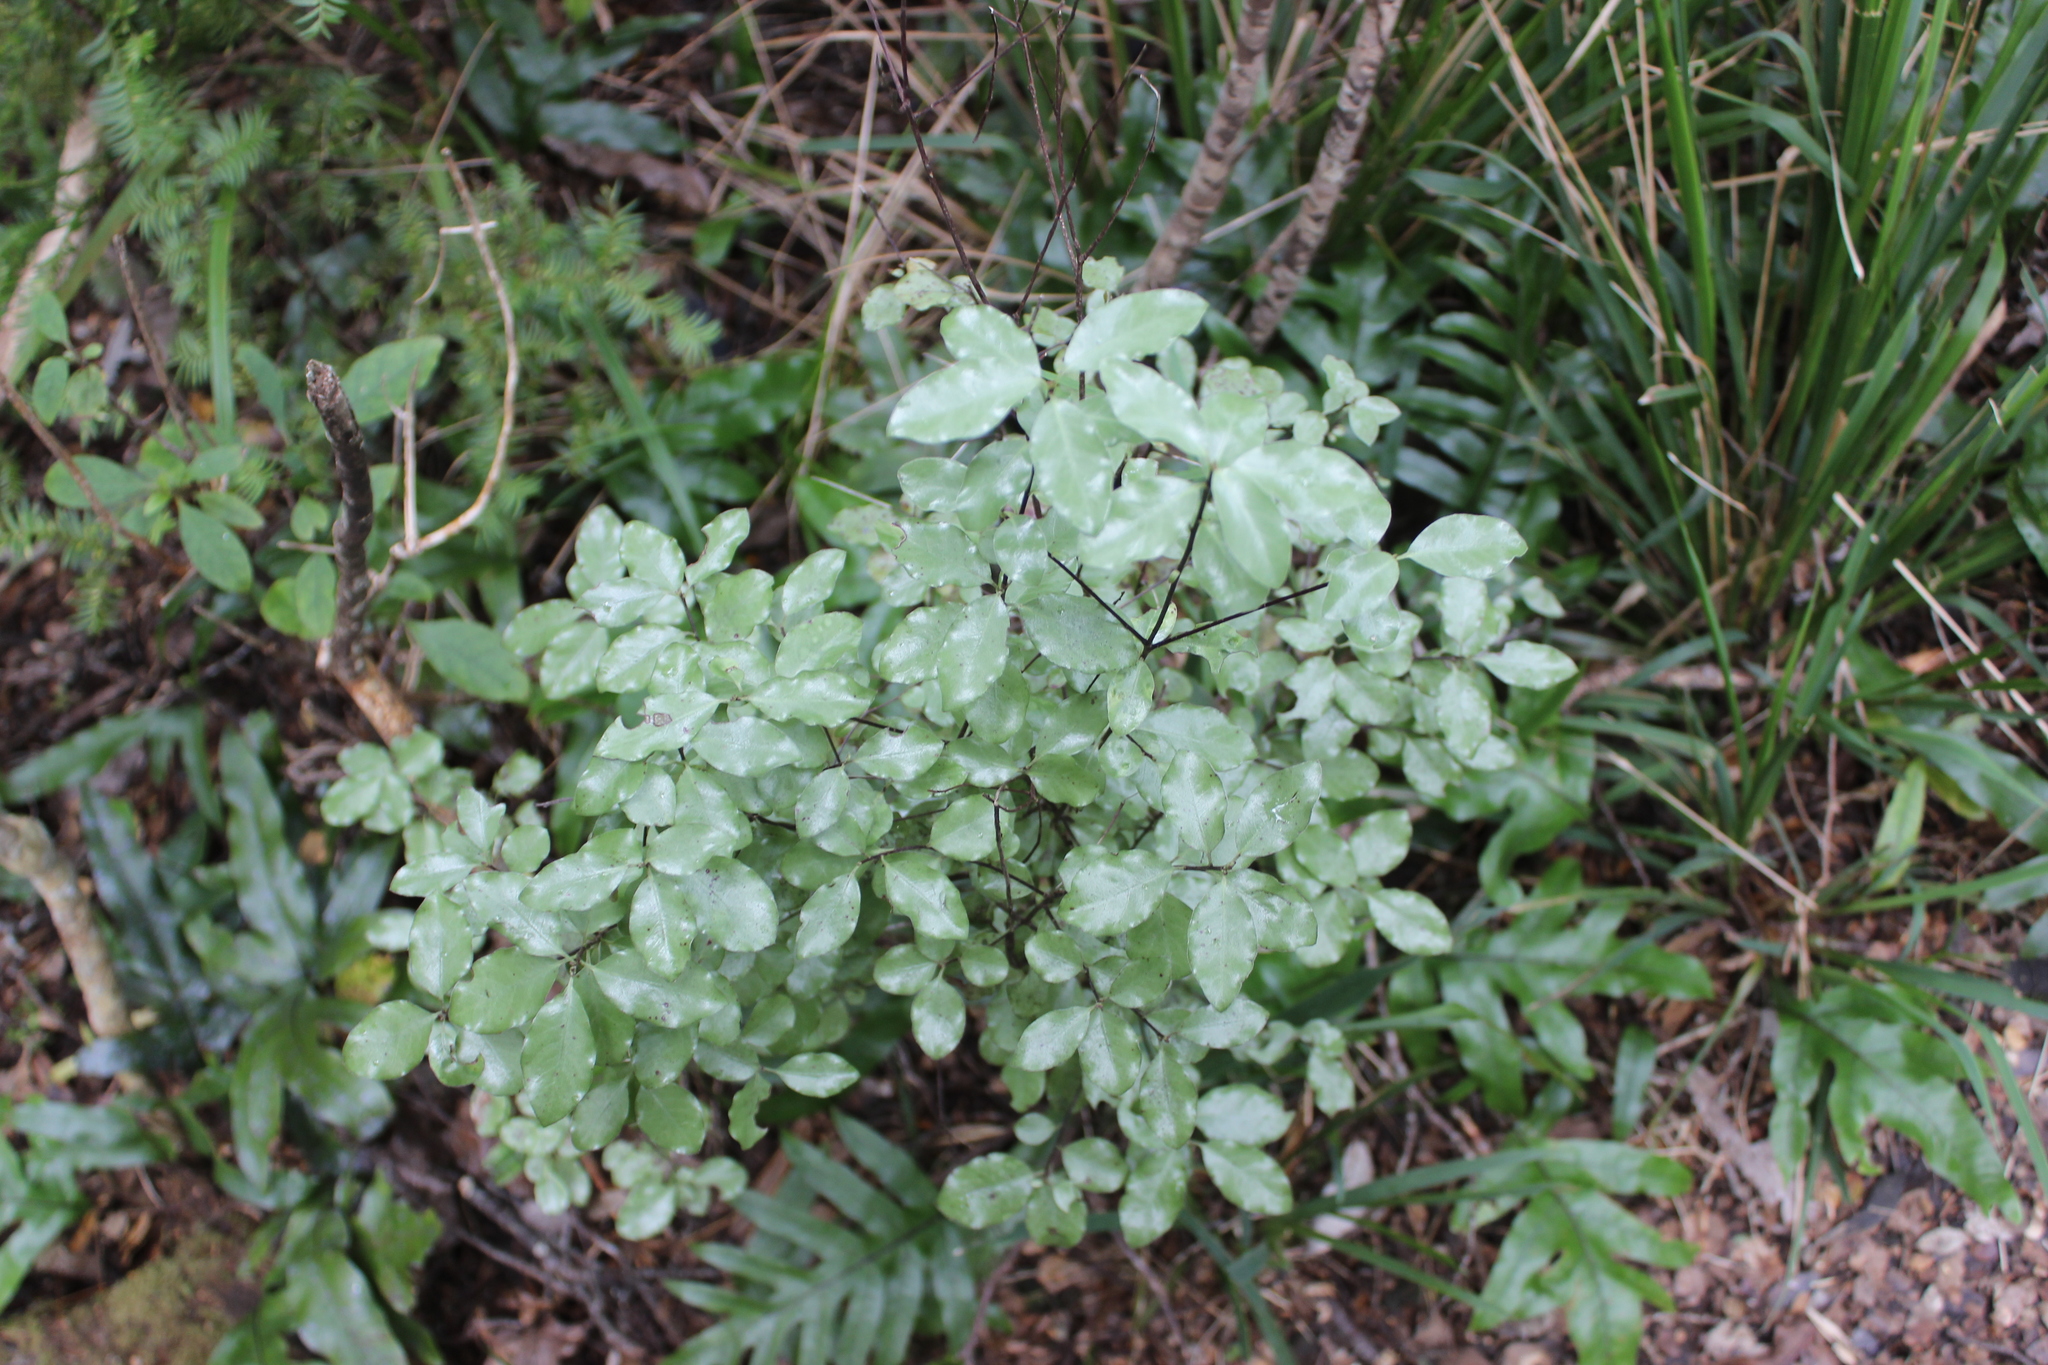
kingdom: Plantae
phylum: Tracheophyta
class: Magnoliopsida
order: Apiales
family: Pittosporaceae
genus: Pittosporum
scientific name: Pittosporum tenuifolium
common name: Kohuhu
